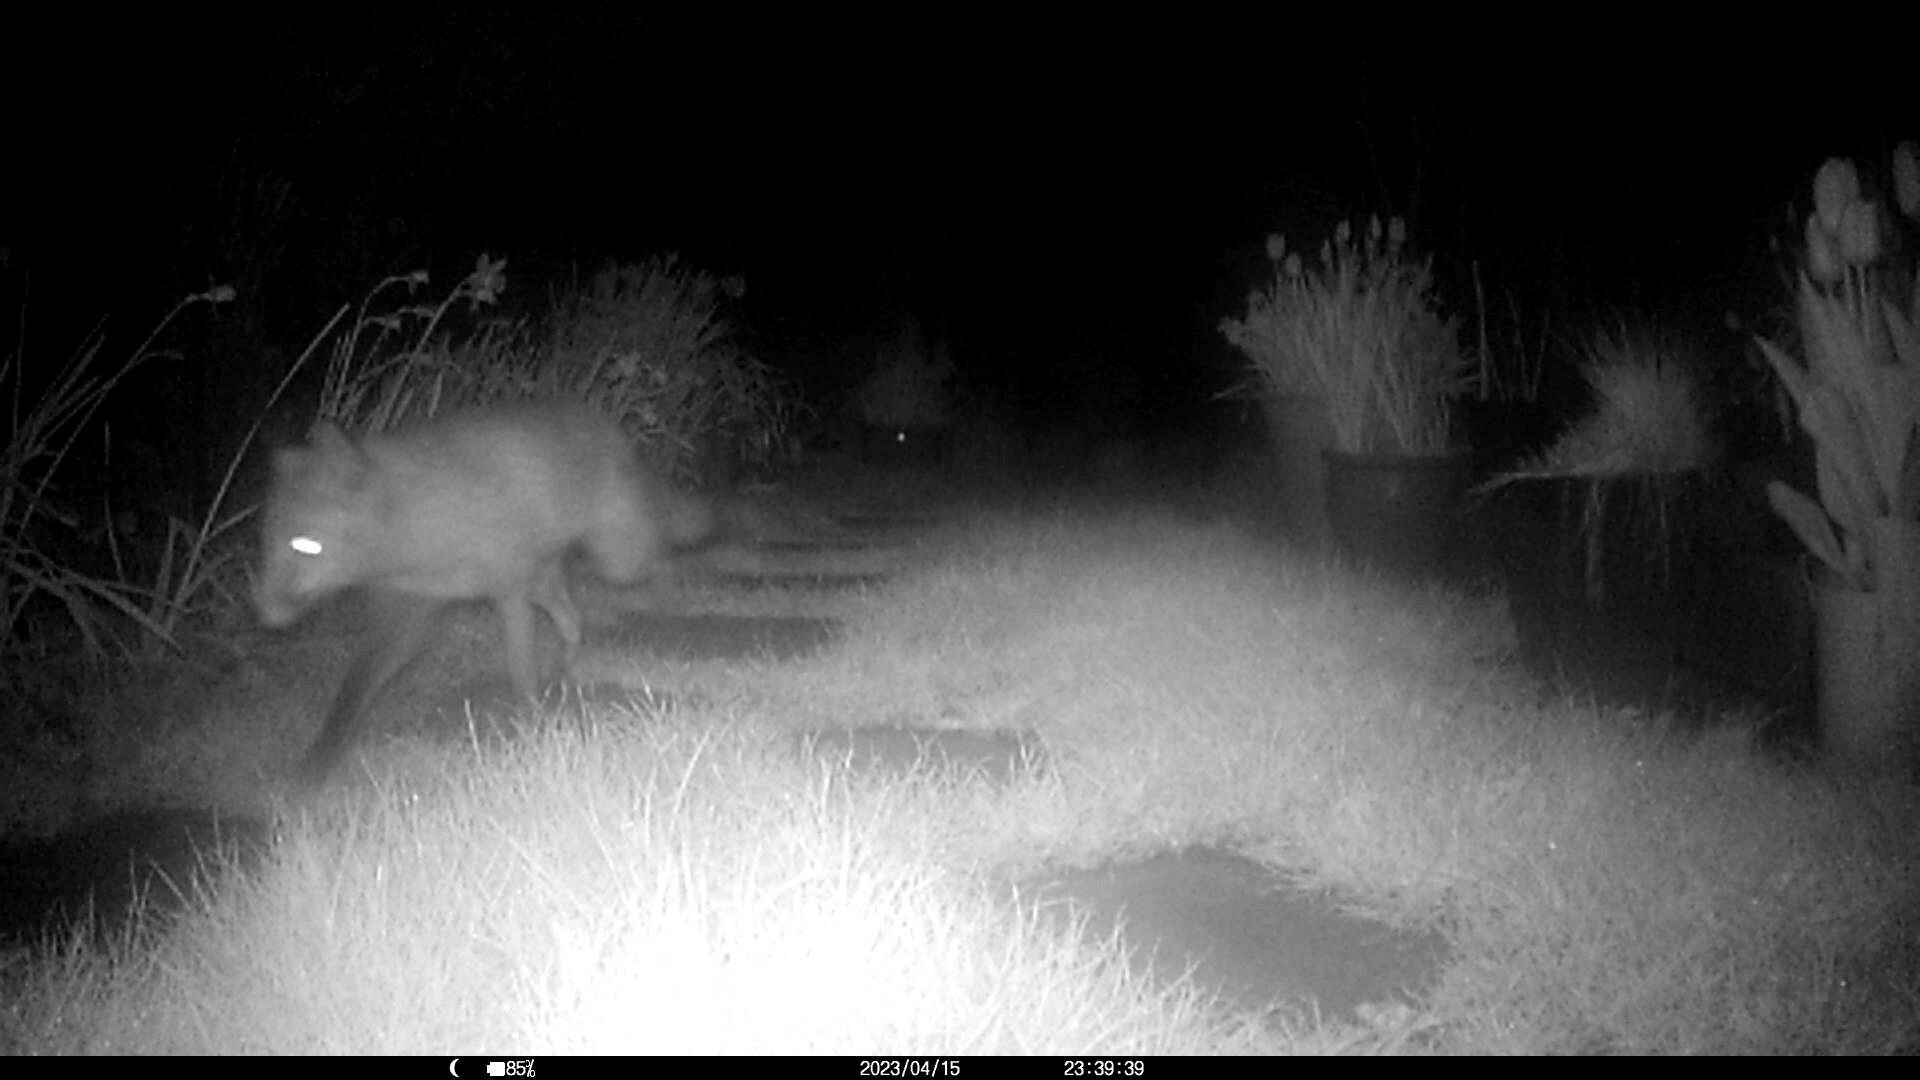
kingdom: Animalia
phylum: Chordata
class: Mammalia
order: Carnivora
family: Canidae
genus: Vulpes
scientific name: Vulpes vulpes
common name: Red fox
